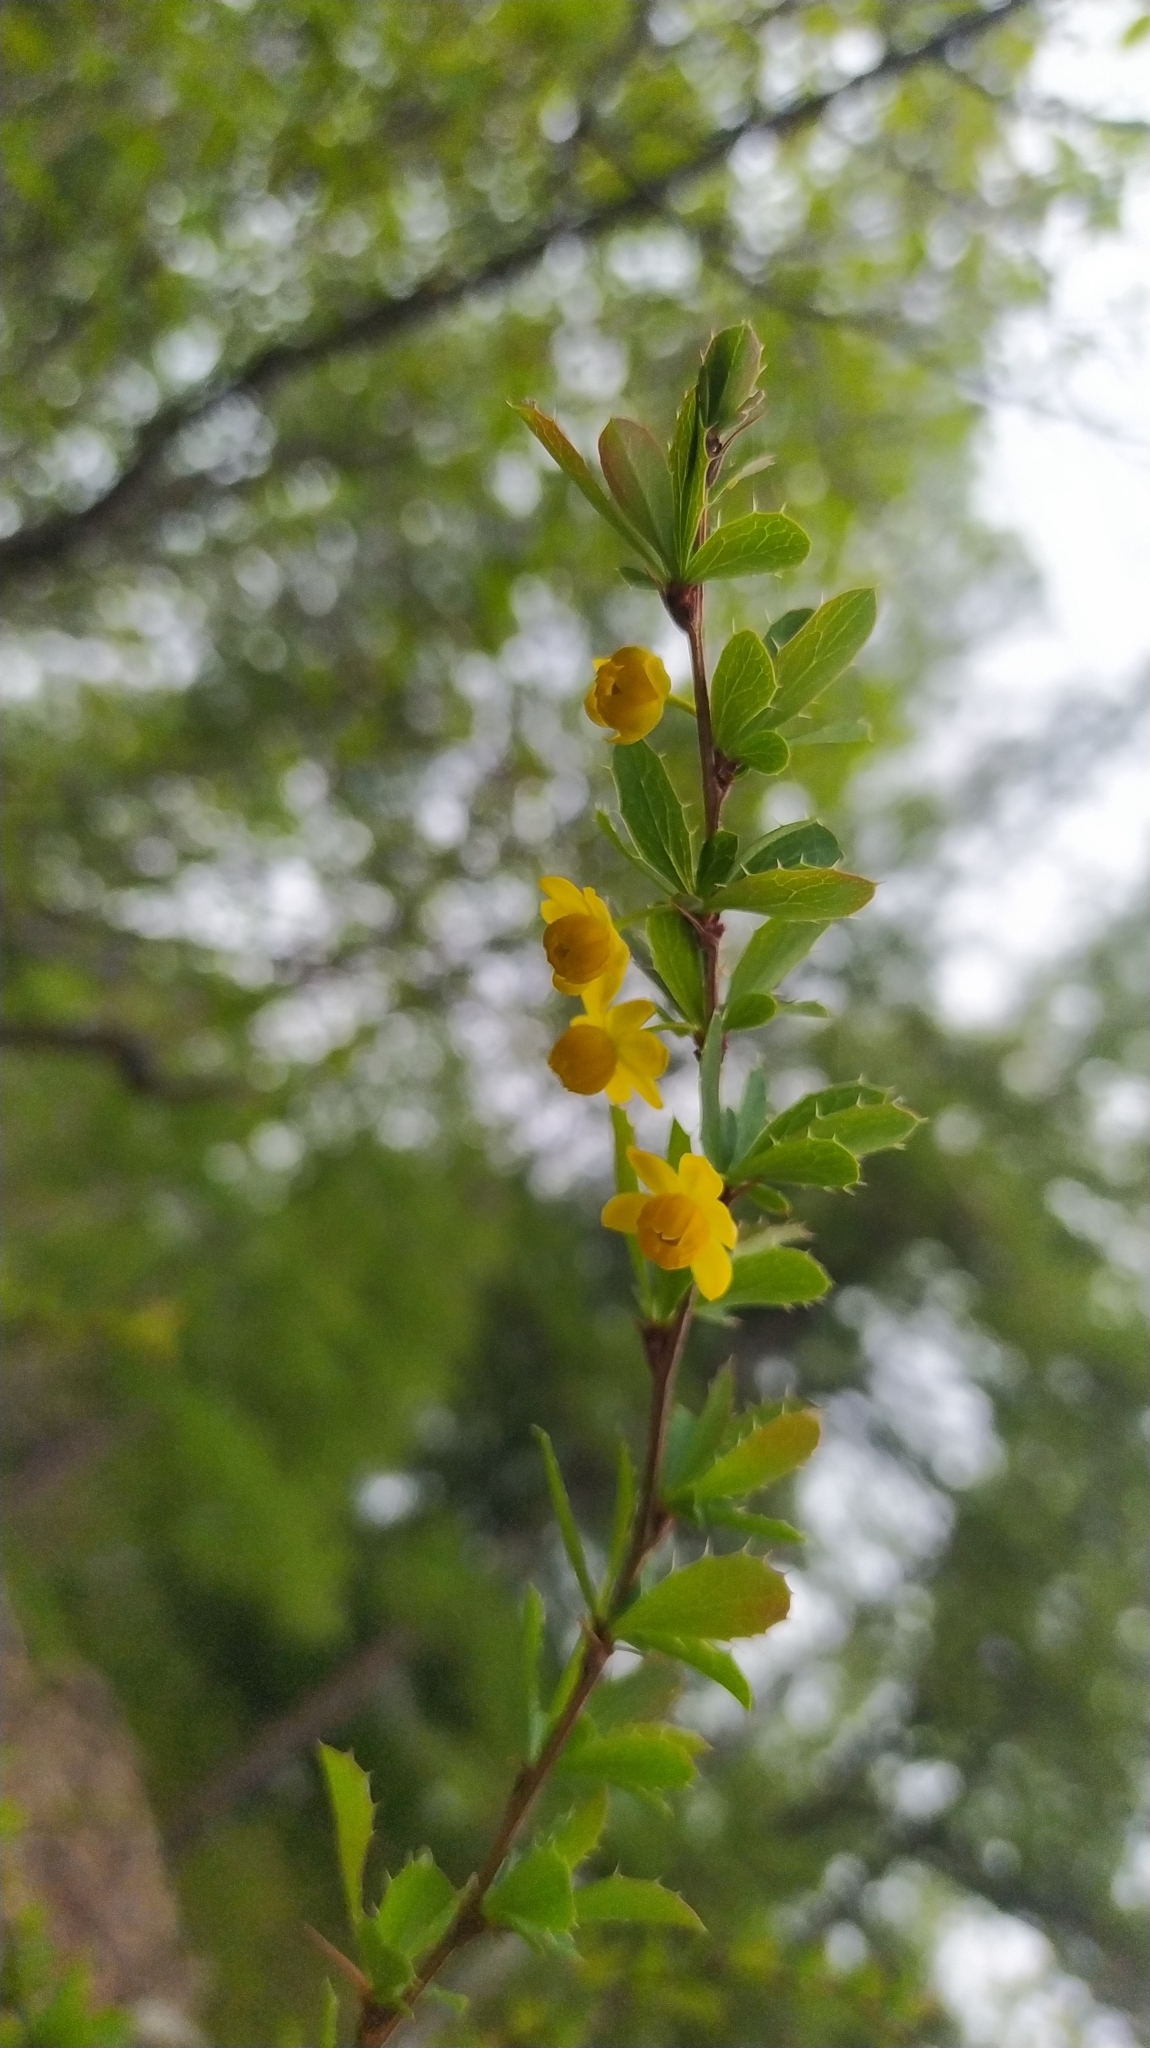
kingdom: Plantae
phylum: Tracheophyta
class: Magnoliopsida
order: Ranunculales
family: Berberidaceae
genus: Berberis
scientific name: Berberis sibirica
